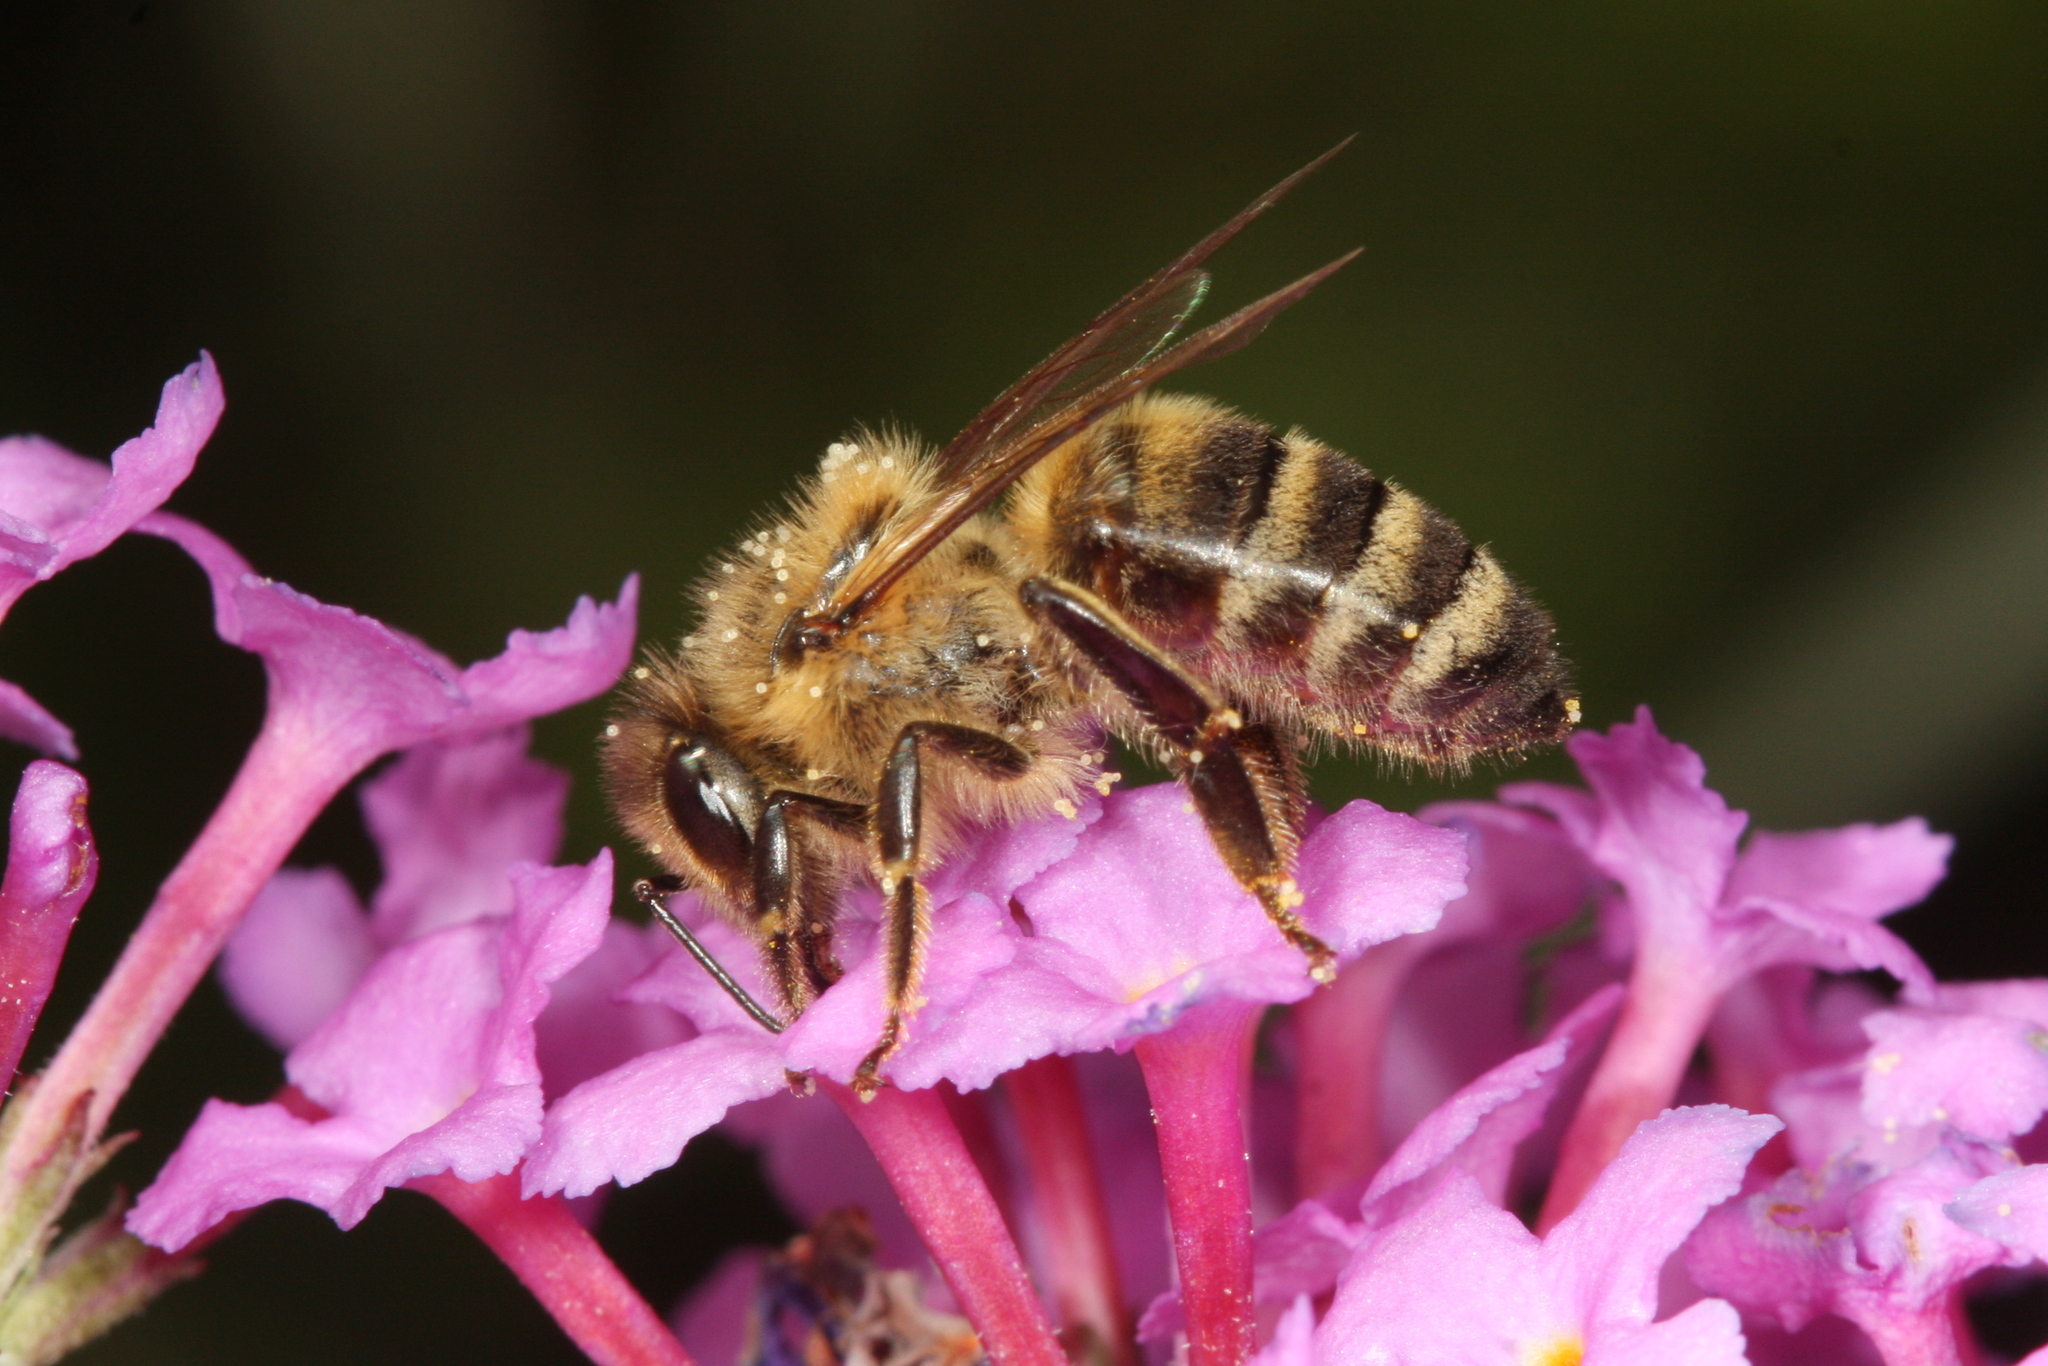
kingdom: Animalia
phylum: Arthropoda
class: Insecta
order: Hymenoptera
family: Apidae
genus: Apis
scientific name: Apis mellifera
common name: Honey bee
